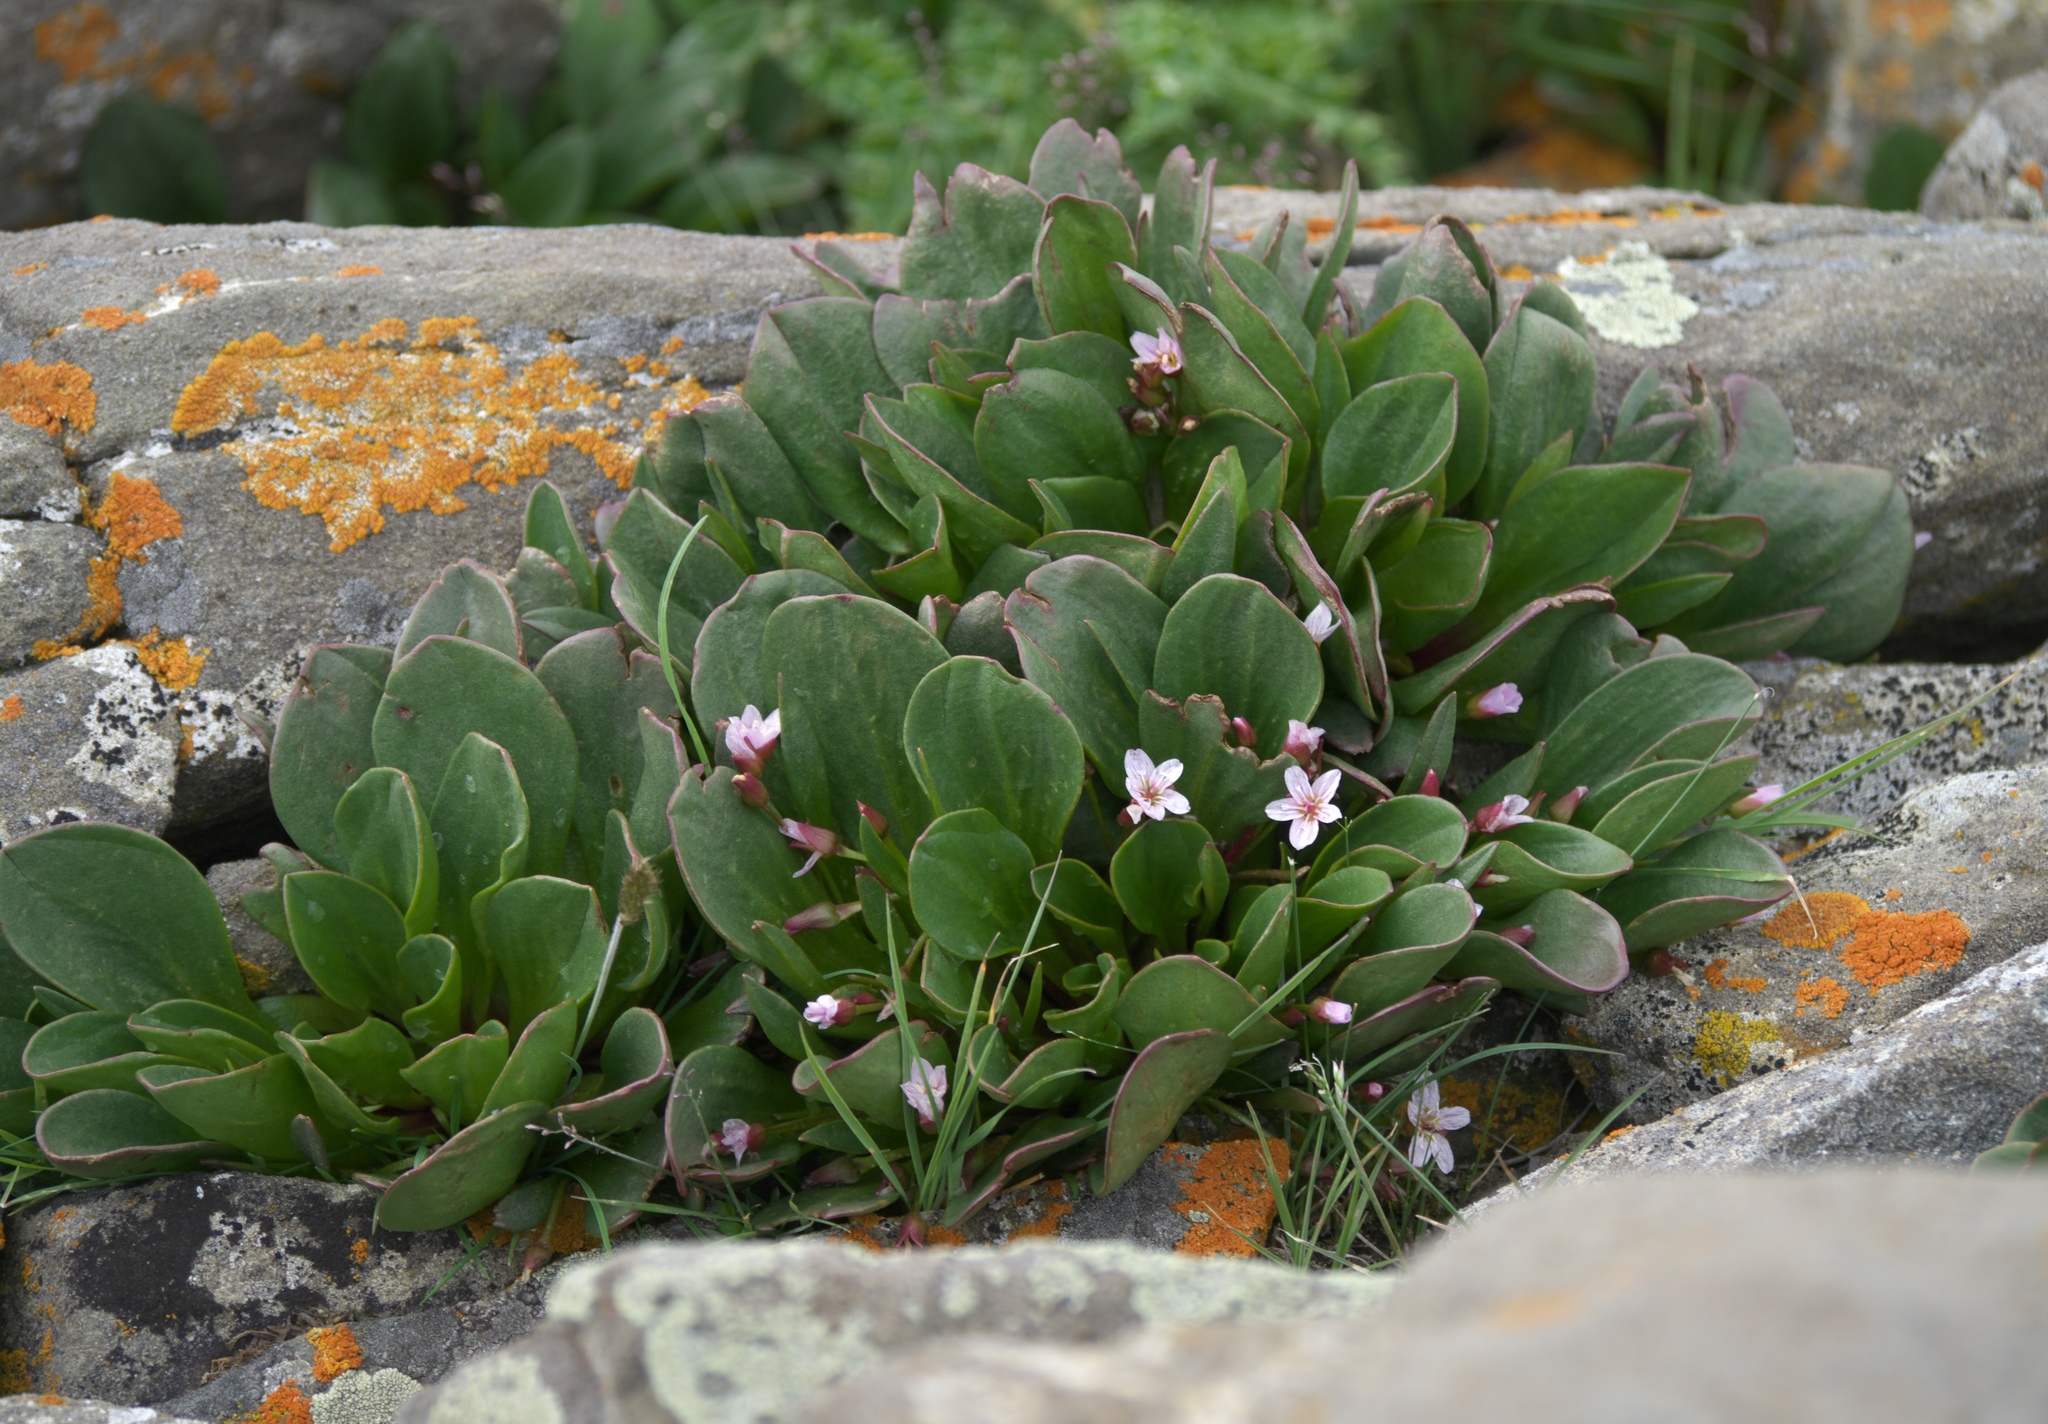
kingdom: Plantae
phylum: Tracheophyta
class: Magnoliopsida
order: Caryophyllales
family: Montiaceae
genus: Claytonia
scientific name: Claytonia megarhiza
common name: Alpine spring beauty
